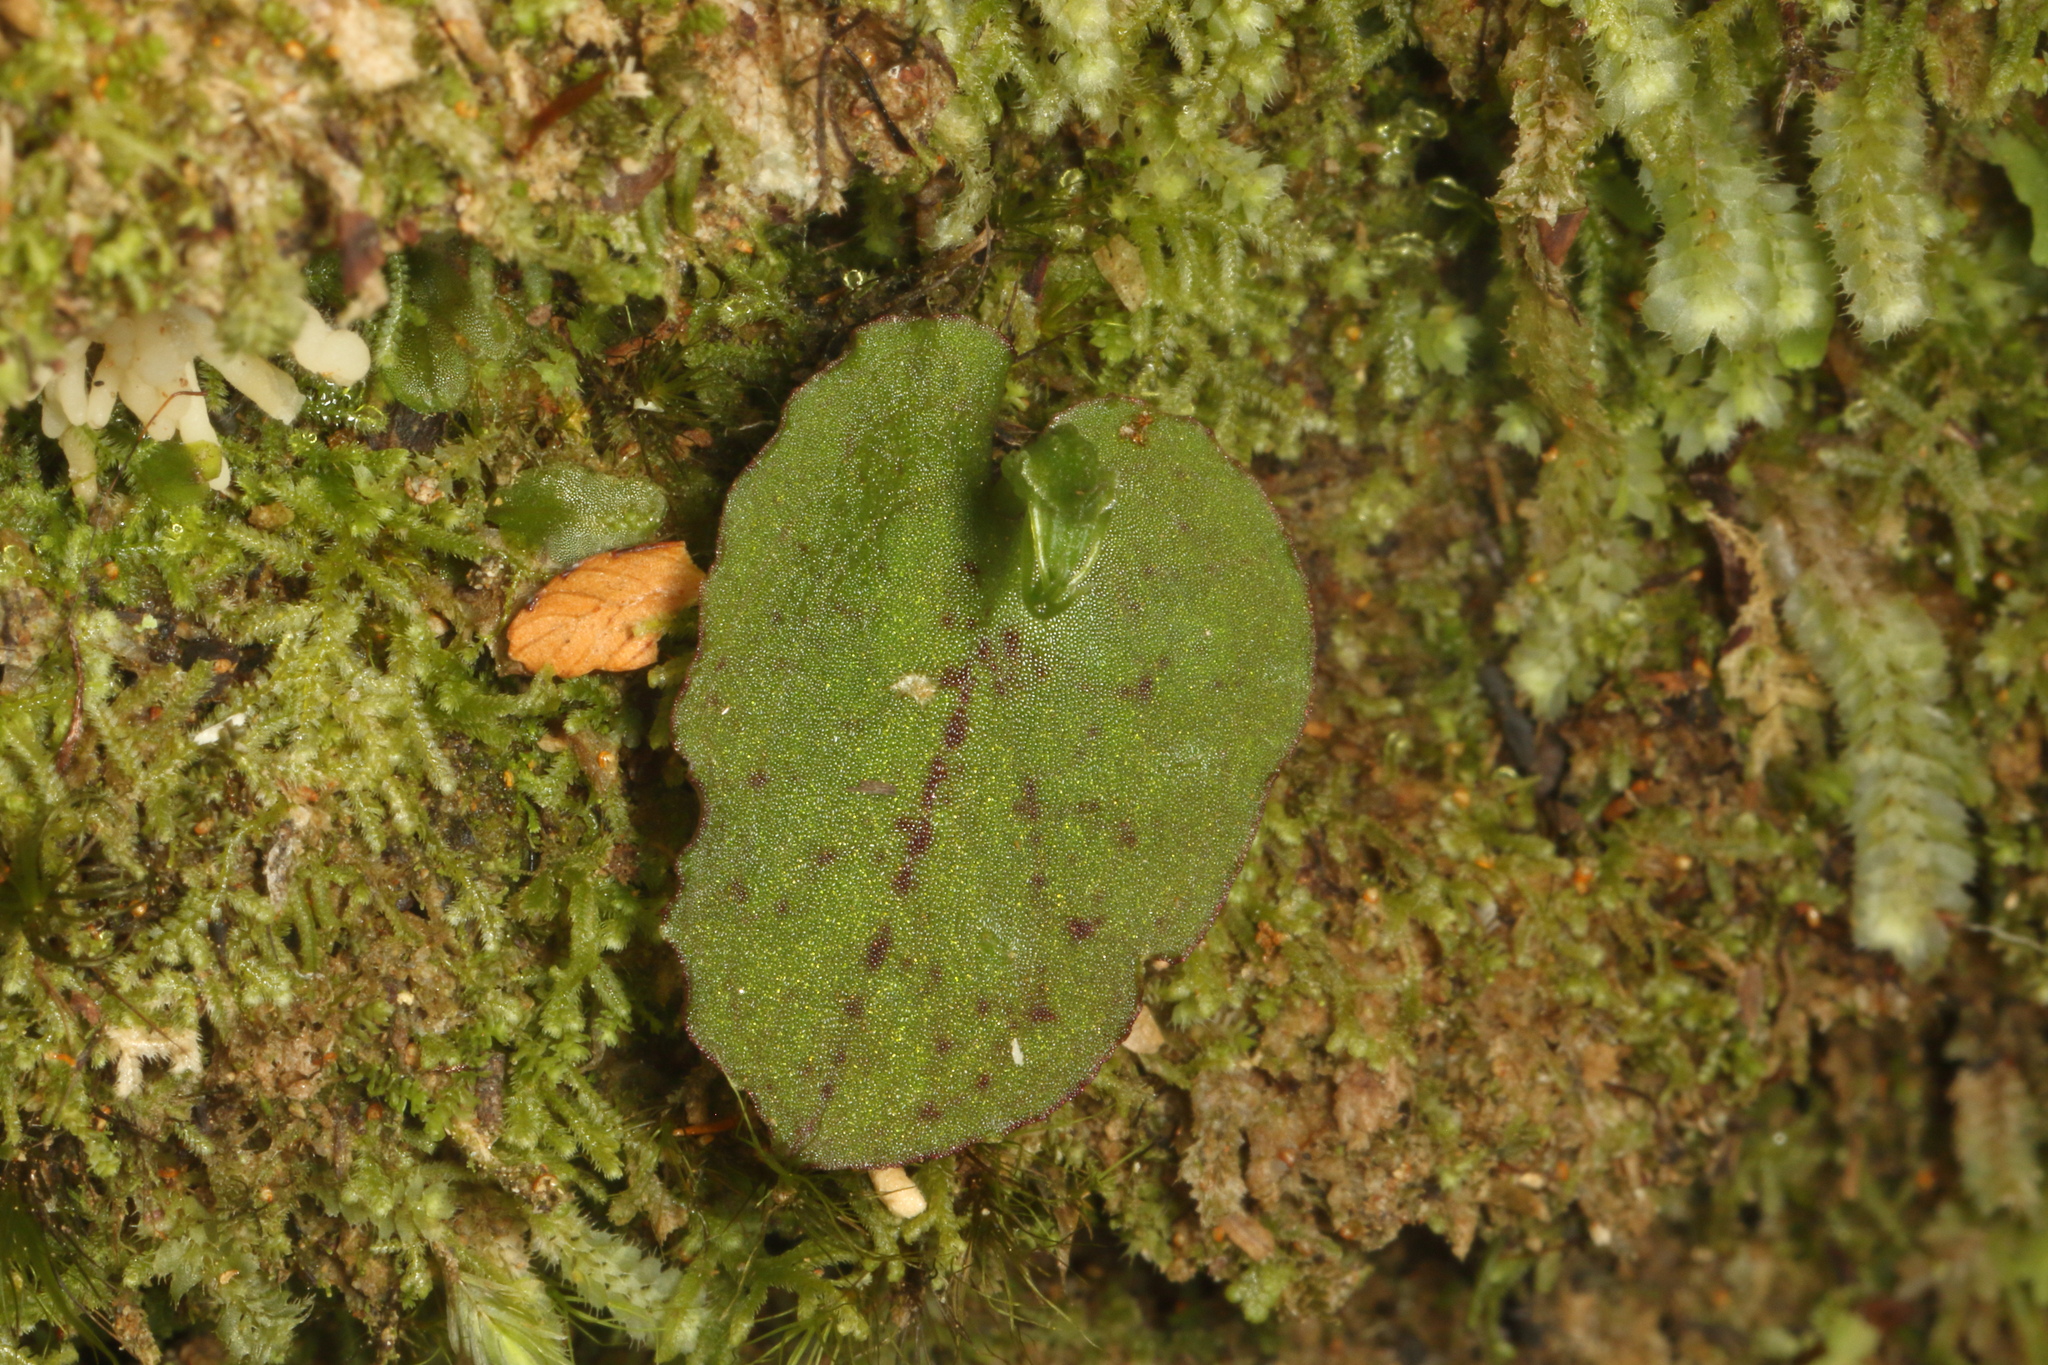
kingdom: Plantae
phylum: Tracheophyta
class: Liliopsida
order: Asparagales
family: Orchidaceae
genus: Corybas
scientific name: Corybas oblongus
